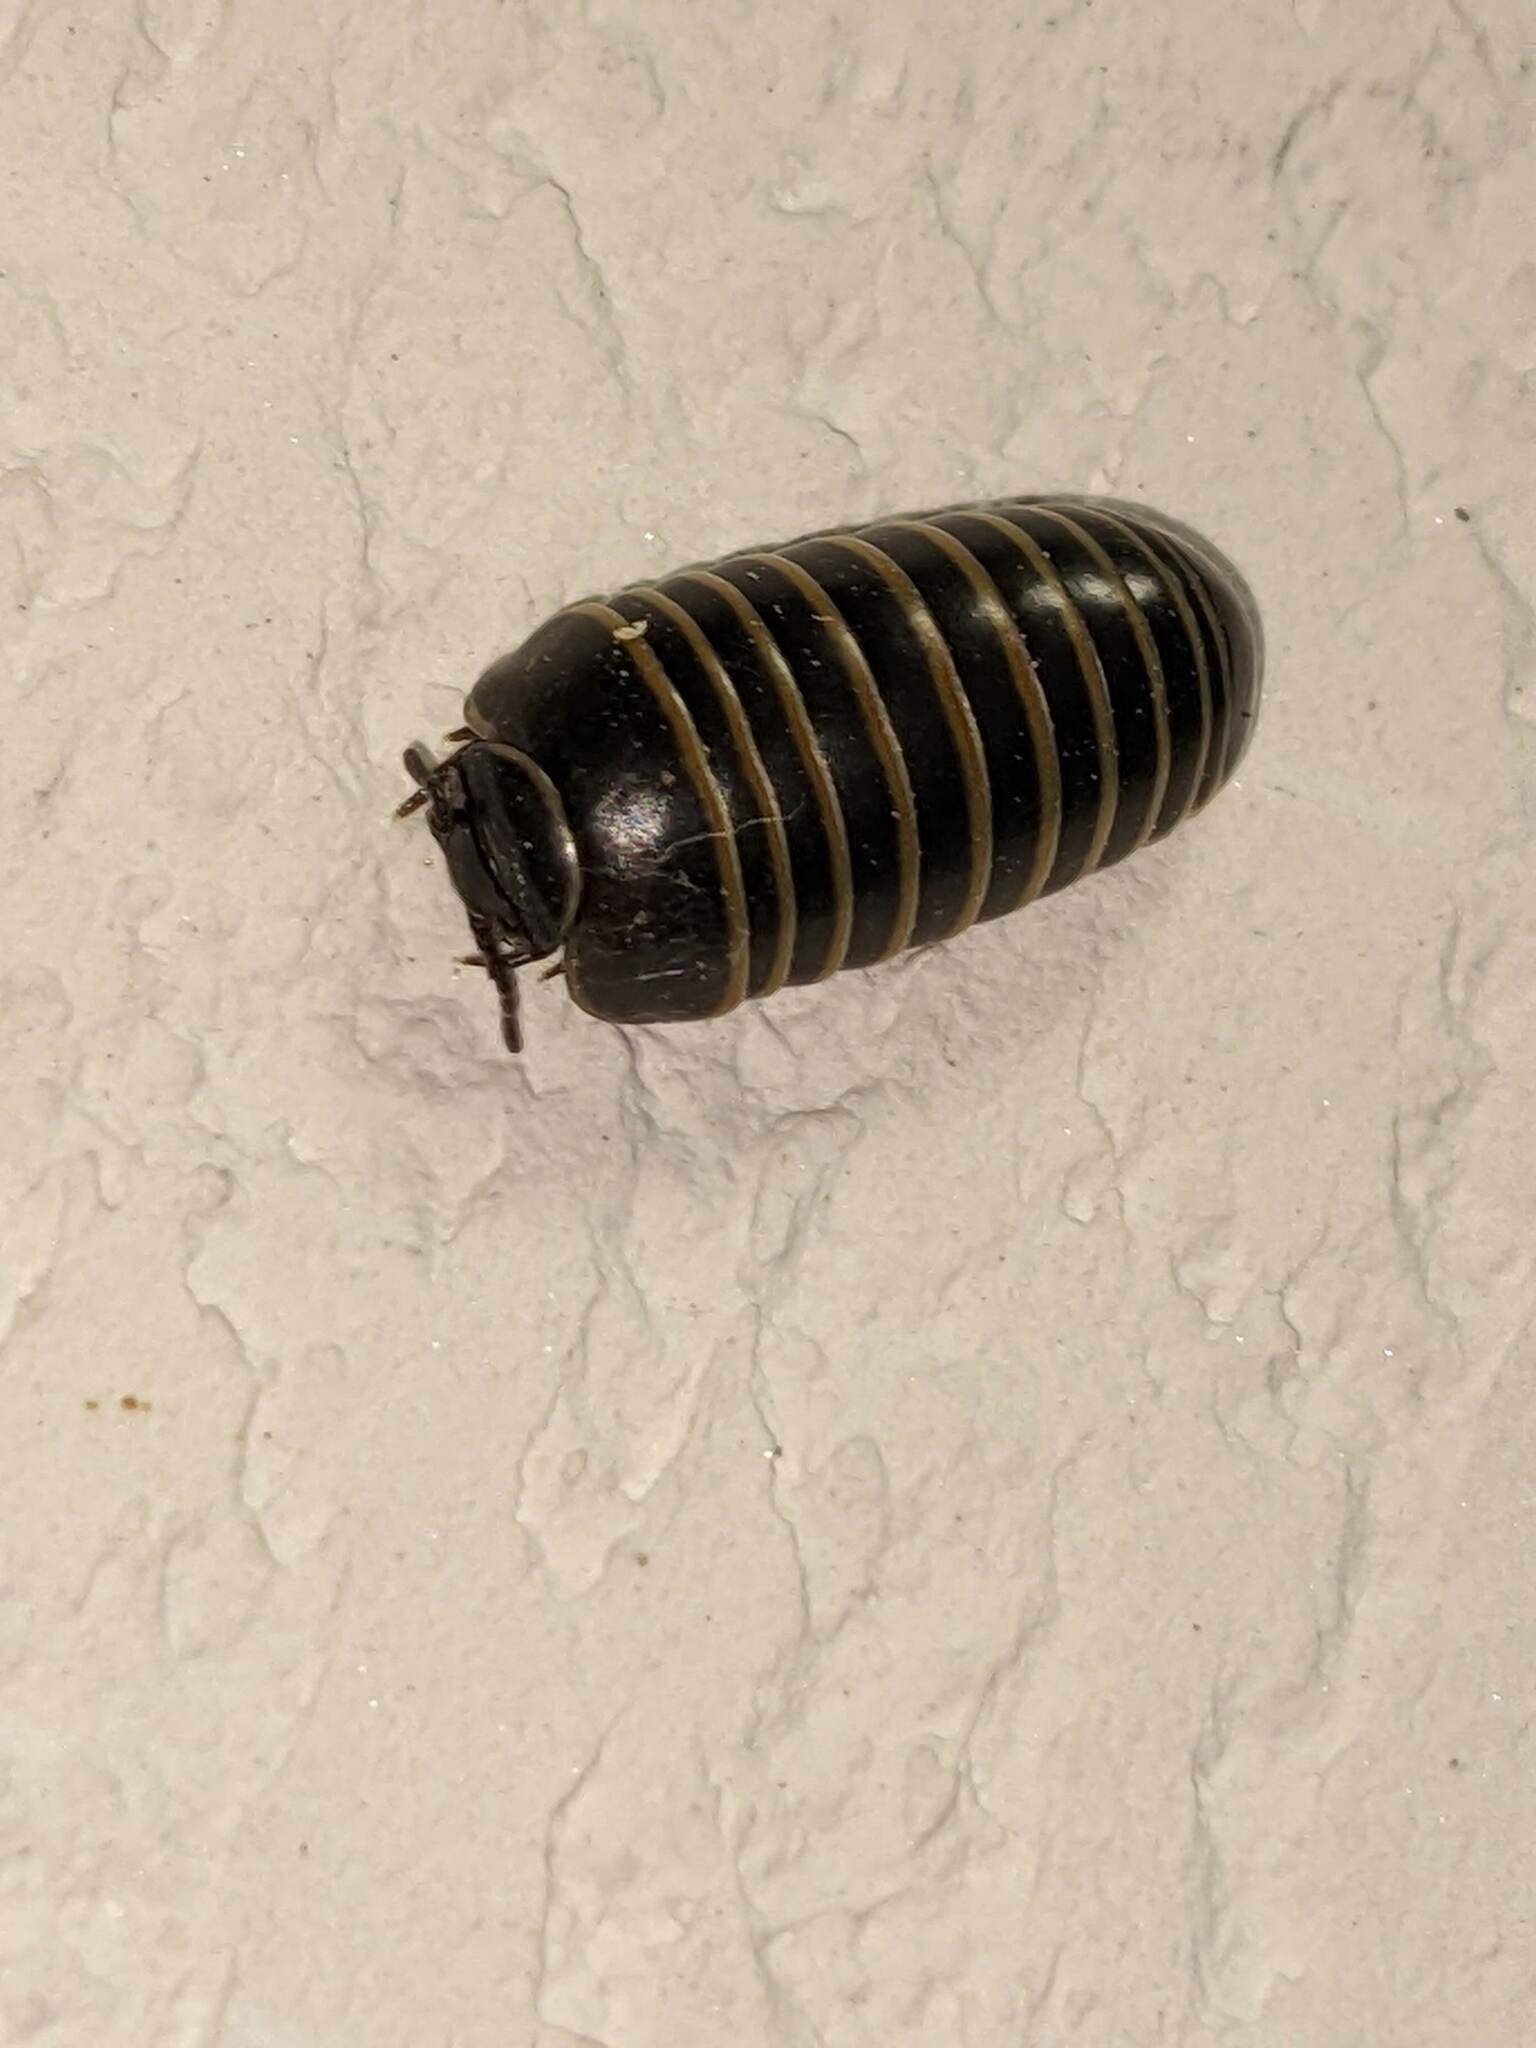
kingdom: Animalia
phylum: Arthropoda
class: Diplopoda
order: Glomerida
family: Glomeridae
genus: Glomeris
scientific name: Glomeris marginata
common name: Bordered pill millipede
